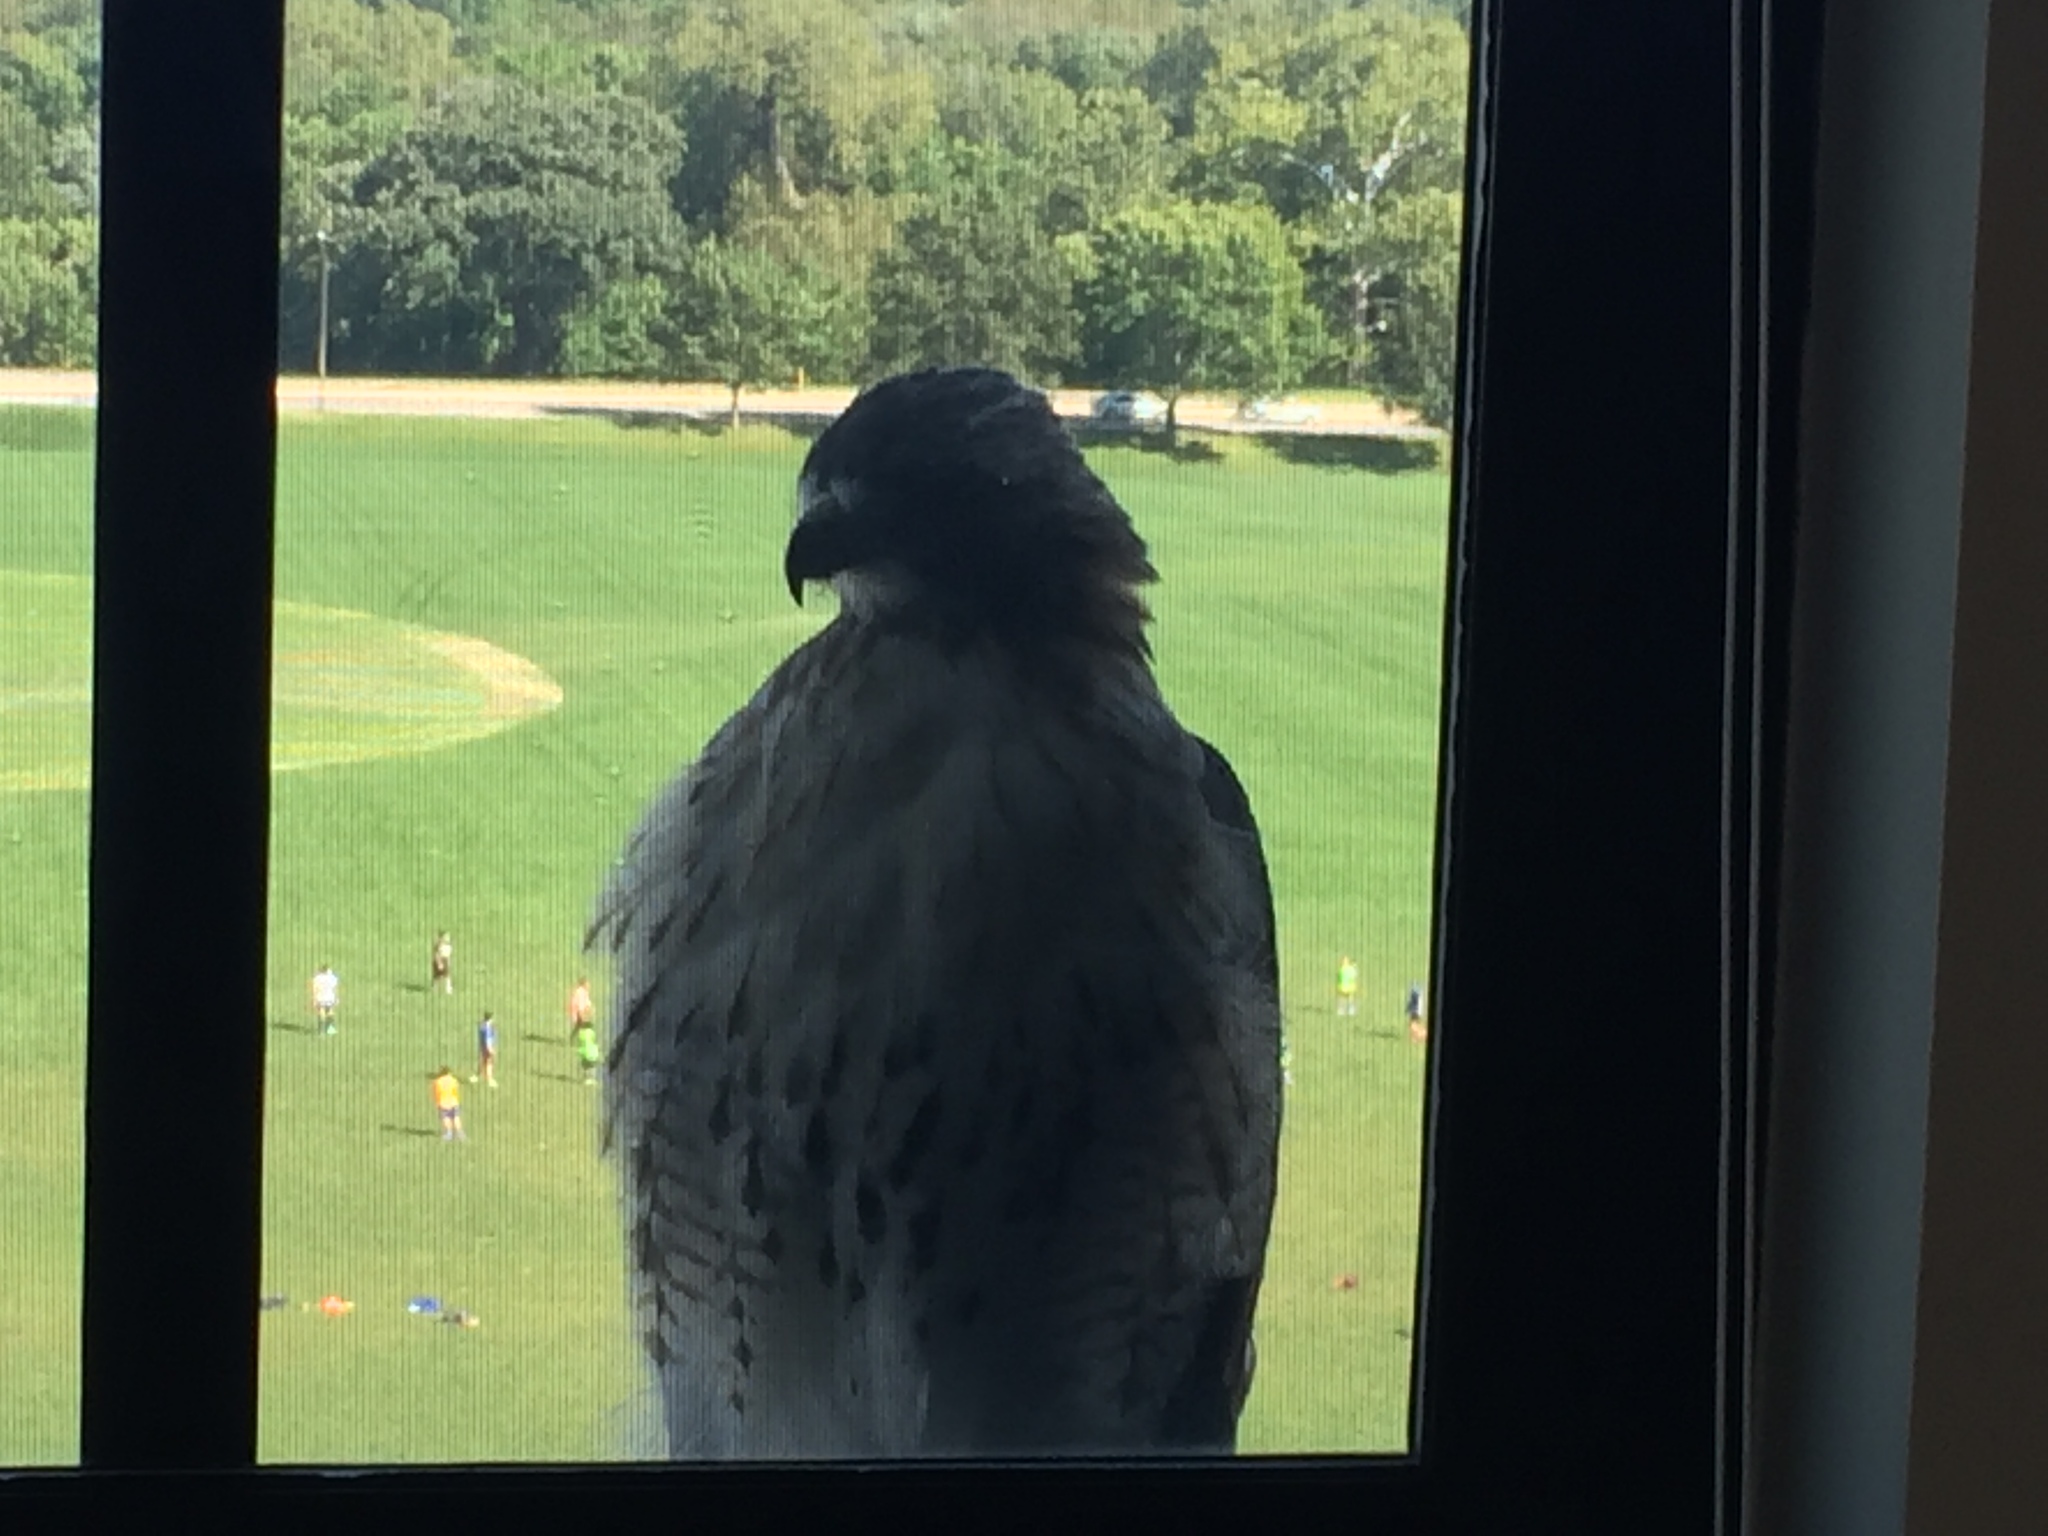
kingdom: Animalia
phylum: Chordata
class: Aves
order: Accipitriformes
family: Accipitridae
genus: Buteo
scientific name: Buteo jamaicensis
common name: Red-tailed hawk
